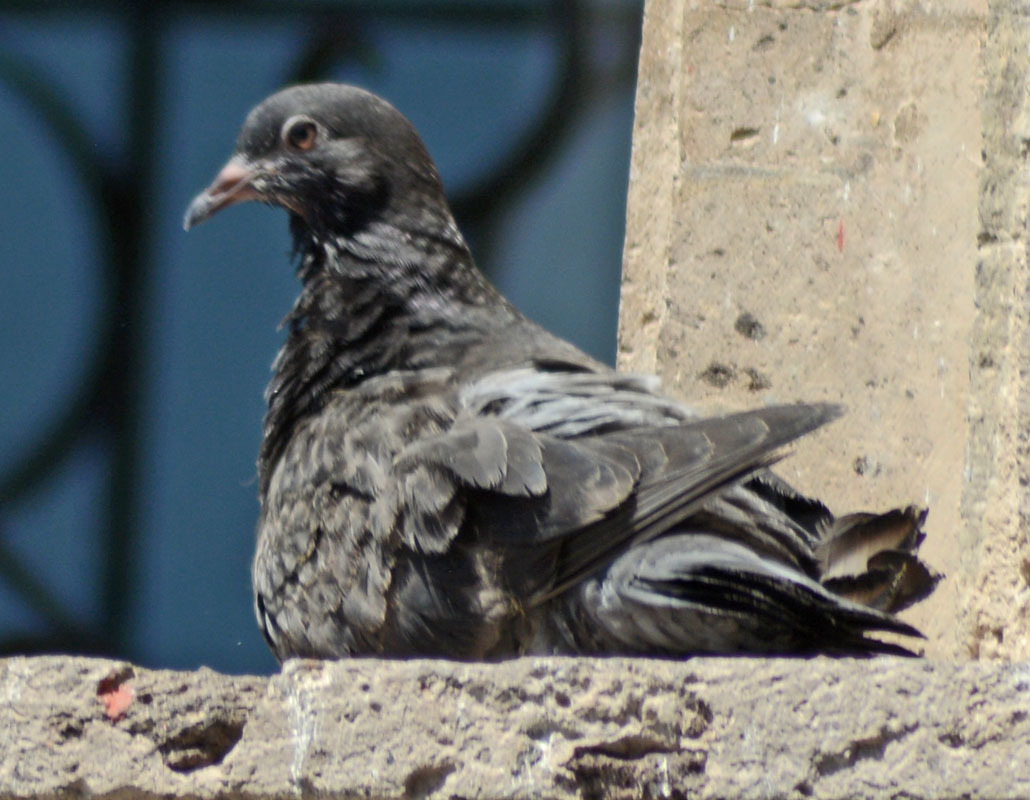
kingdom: Animalia
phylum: Chordata
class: Aves
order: Columbiformes
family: Columbidae
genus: Columba
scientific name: Columba livia
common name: Rock pigeon
